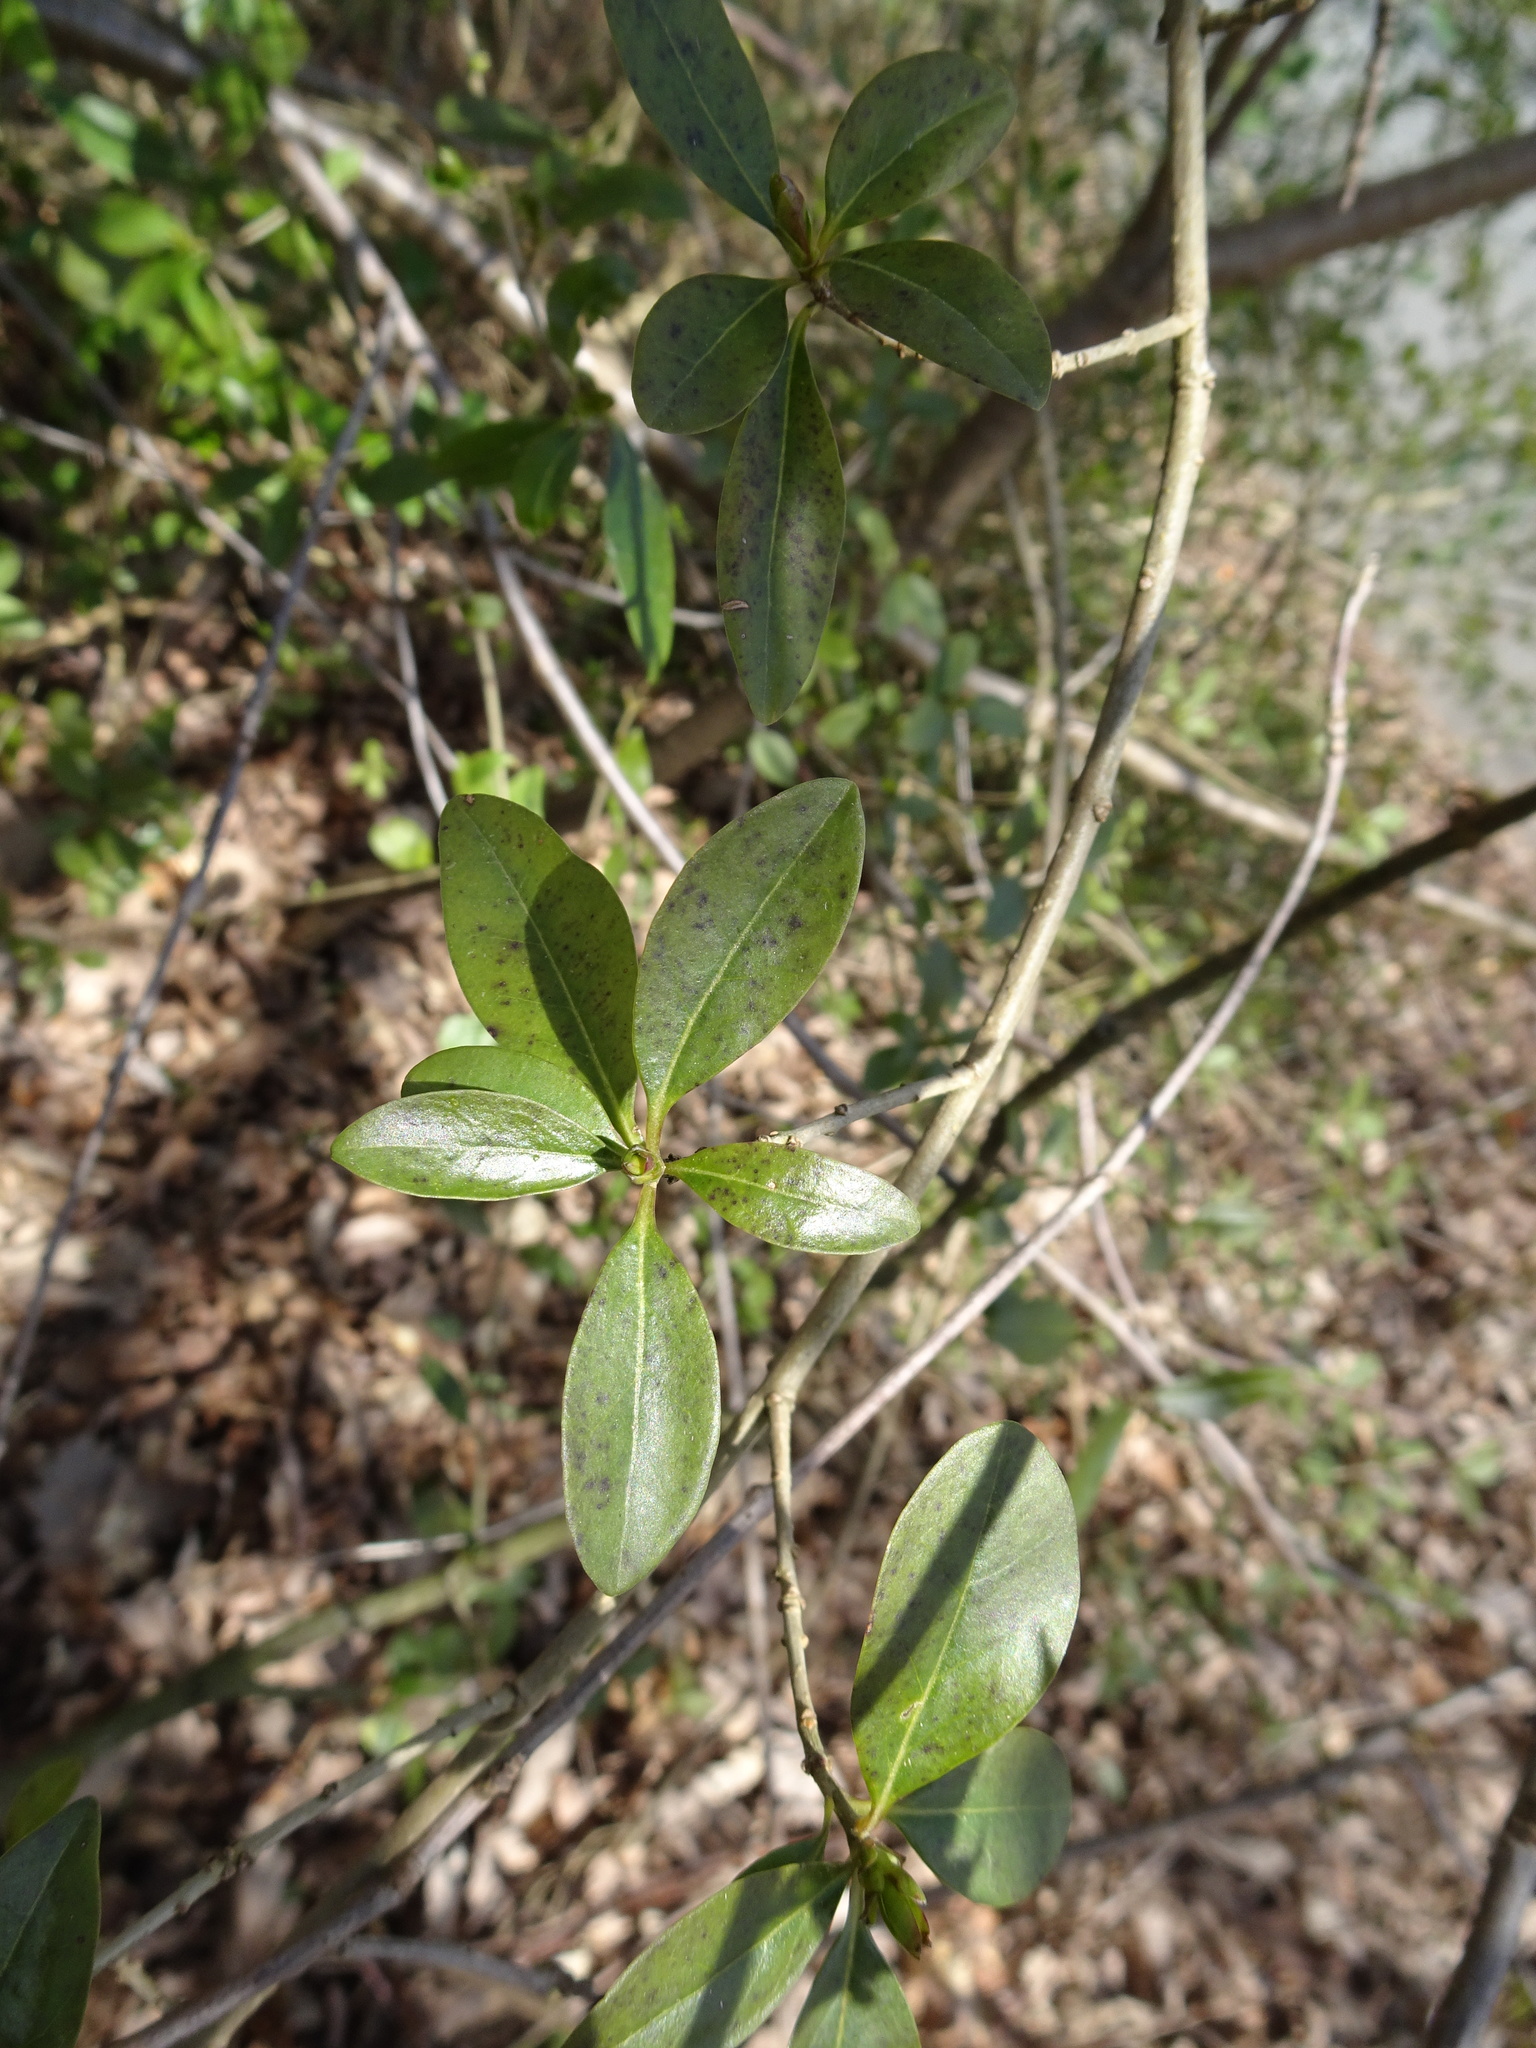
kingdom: Plantae
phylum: Tracheophyta
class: Magnoliopsida
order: Lamiales
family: Oleaceae
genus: Ligustrum
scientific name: Ligustrum vulgare
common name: Wild privet
